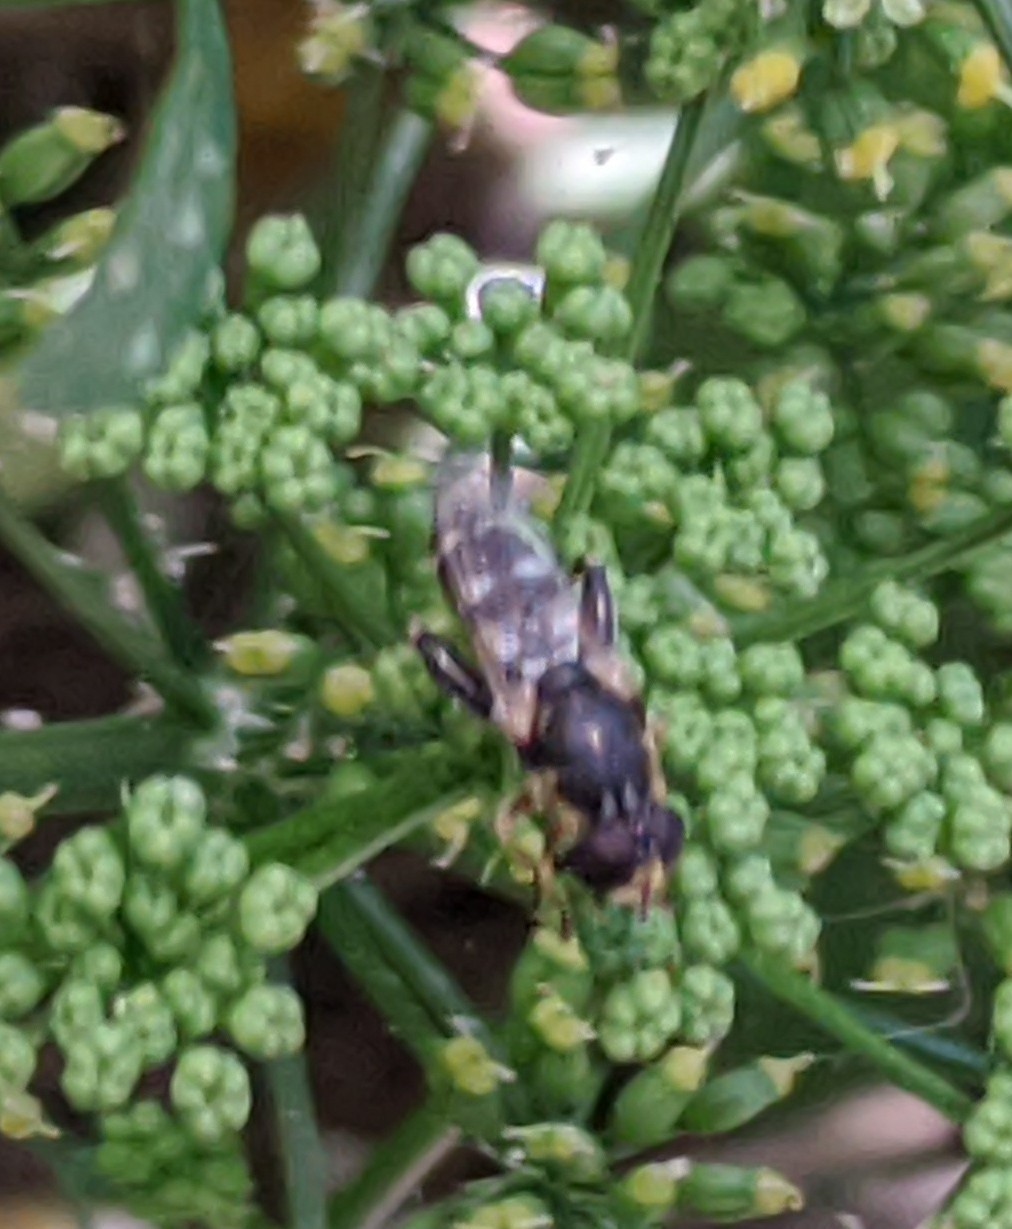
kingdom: Animalia
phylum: Arthropoda
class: Insecta
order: Diptera
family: Syrphidae
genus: Syritta
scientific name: Syritta pipiens
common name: Hover fly
